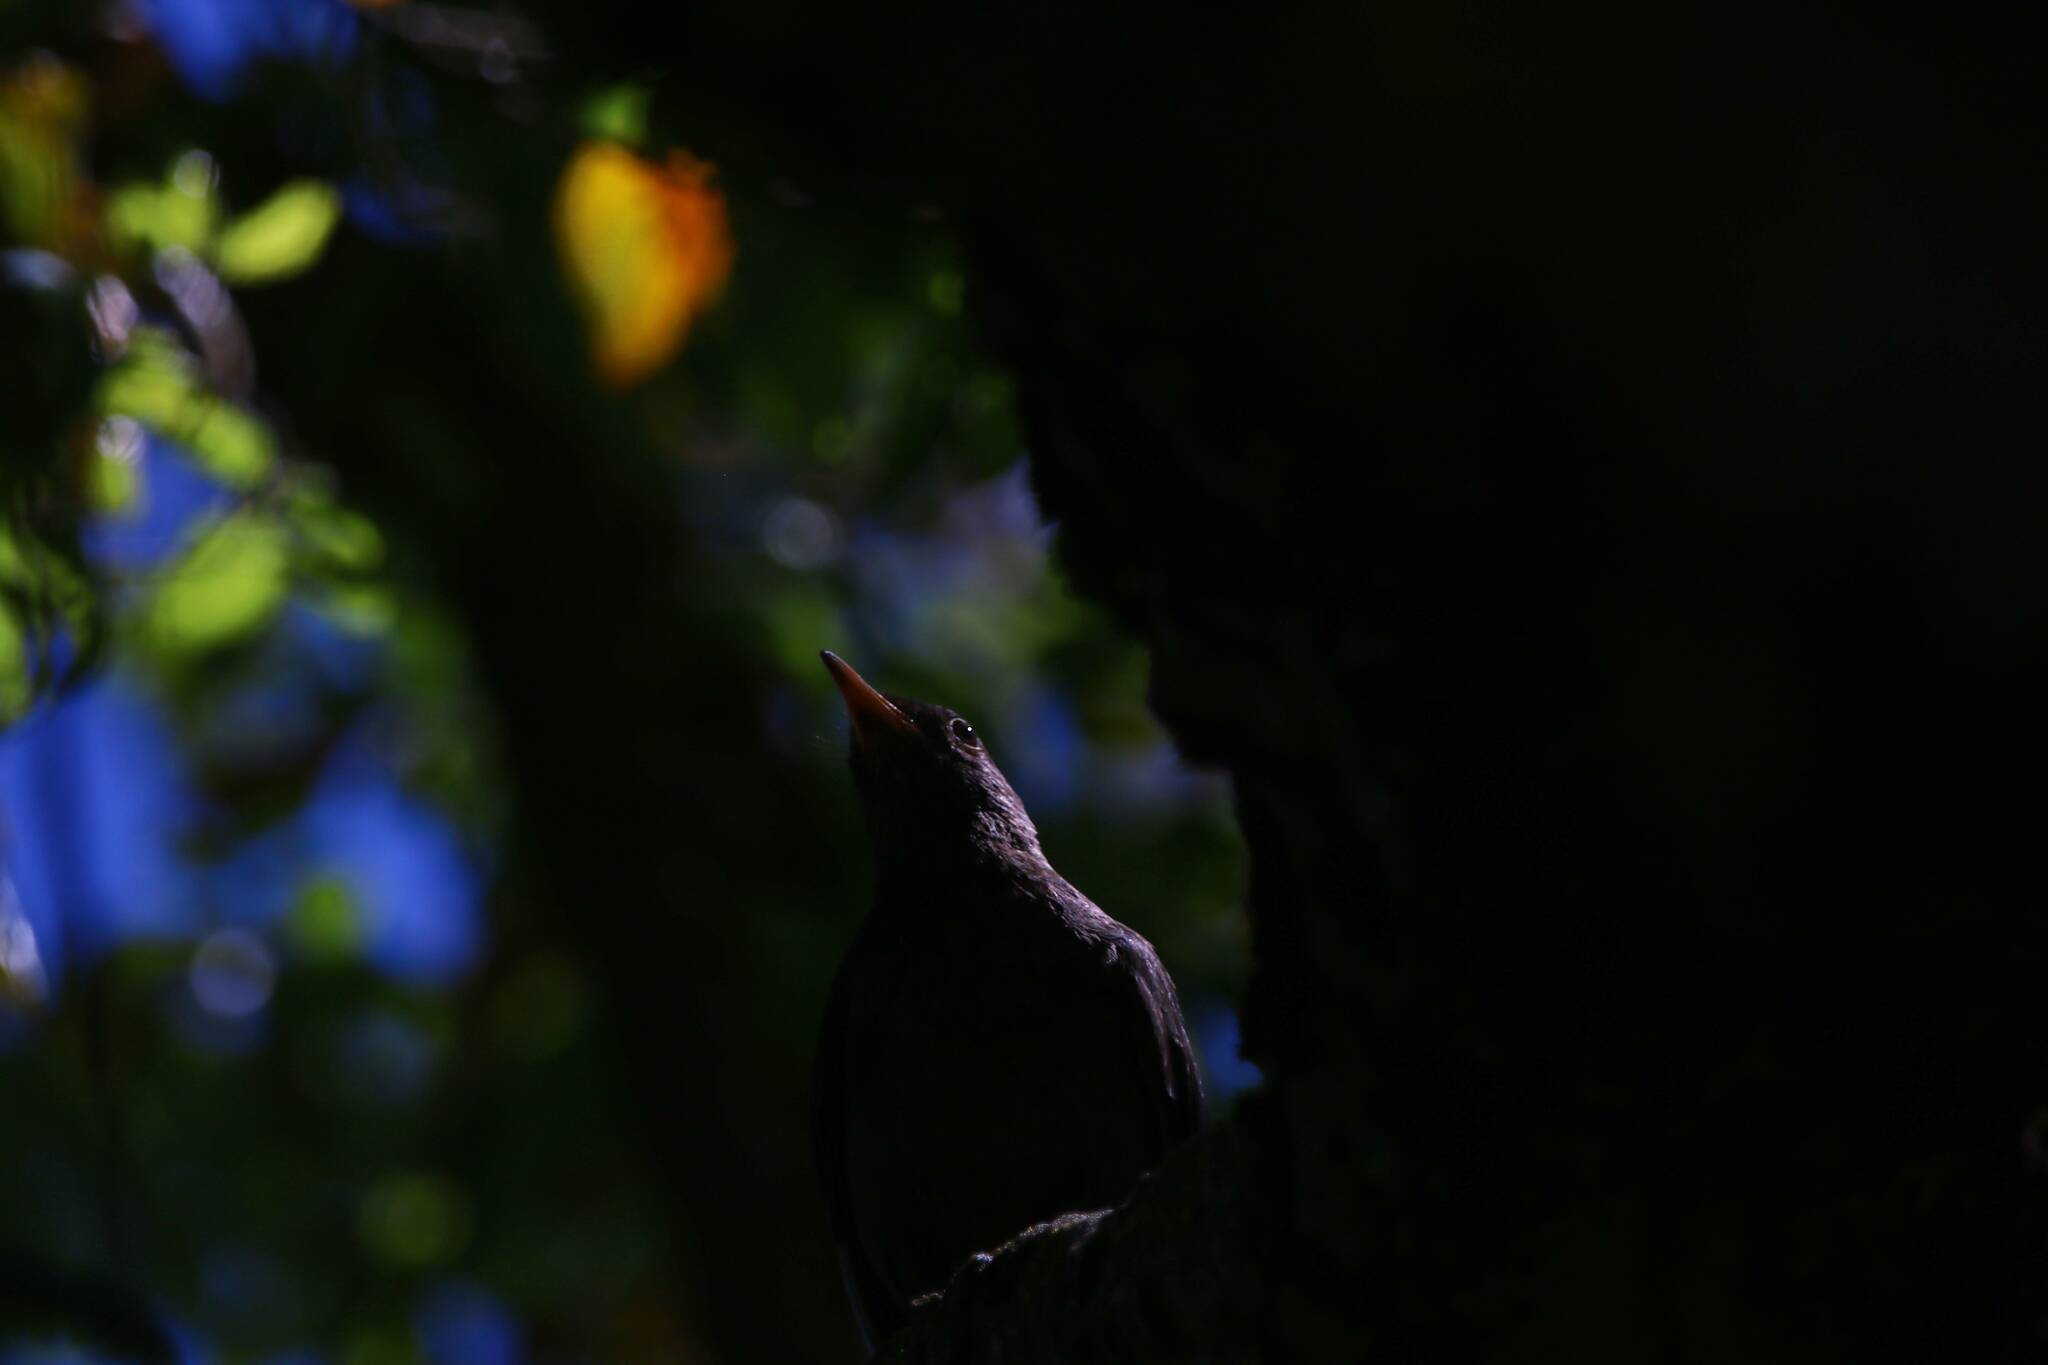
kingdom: Animalia
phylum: Chordata
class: Aves
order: Passeriformes
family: Turdidae
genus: Turdus
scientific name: Turdus merula
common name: Common blackbird
